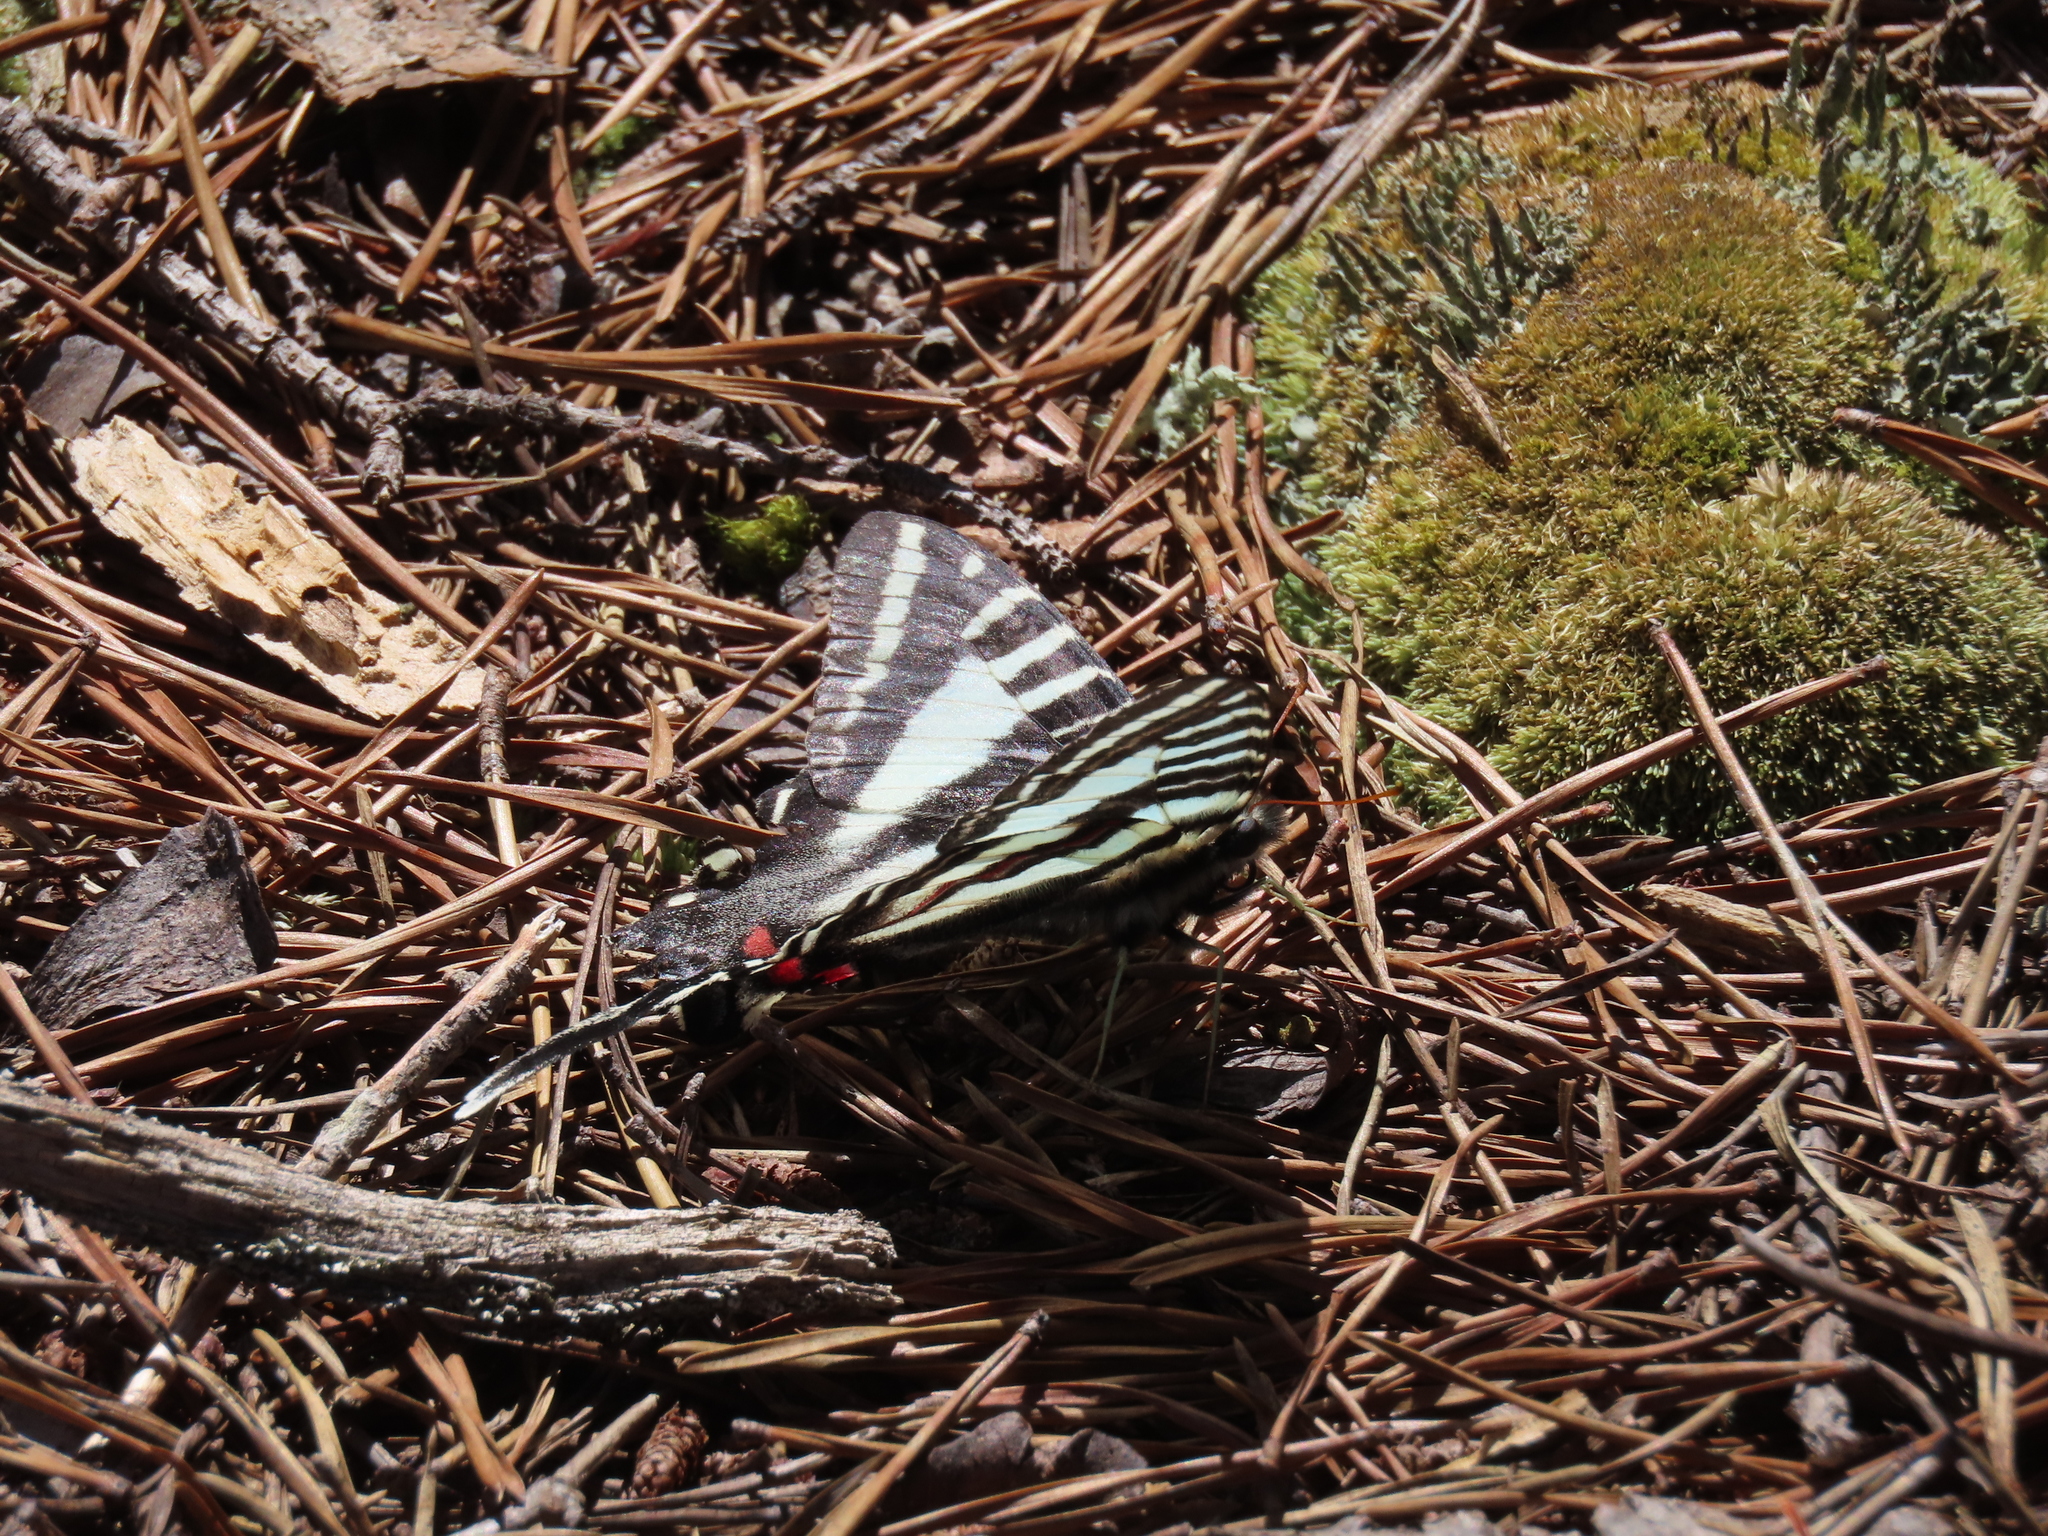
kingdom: Animalia
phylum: Arthropoda
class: Insecta
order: Lepidoptera
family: Papilionidae
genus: Protographium
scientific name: Protographium marcellus
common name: Zebra swallowtail
